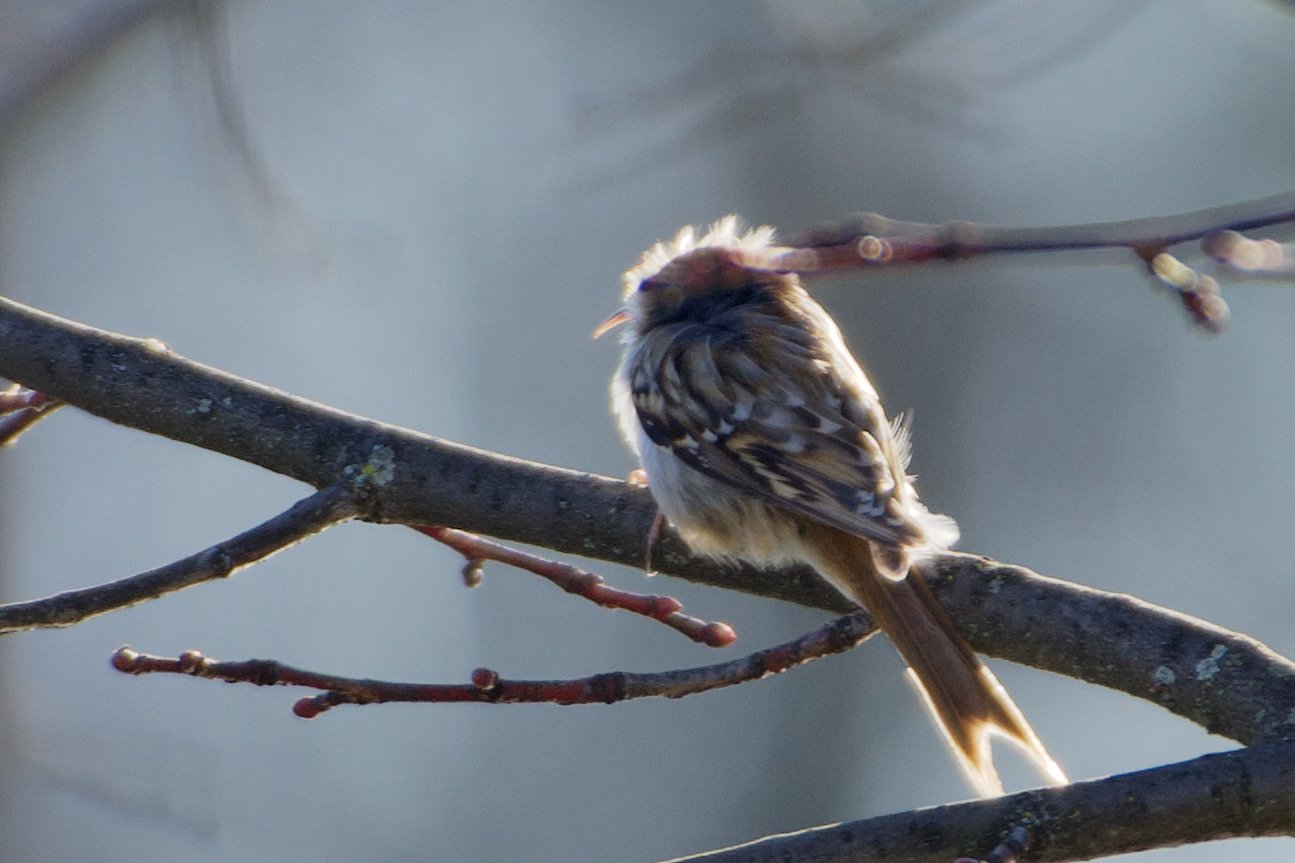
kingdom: Animalia
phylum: Chordata
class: Aves
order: Passeriformes
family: Certhiidae
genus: Certhia
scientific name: Certhia brachydactyla
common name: Short-toed treecreeper
